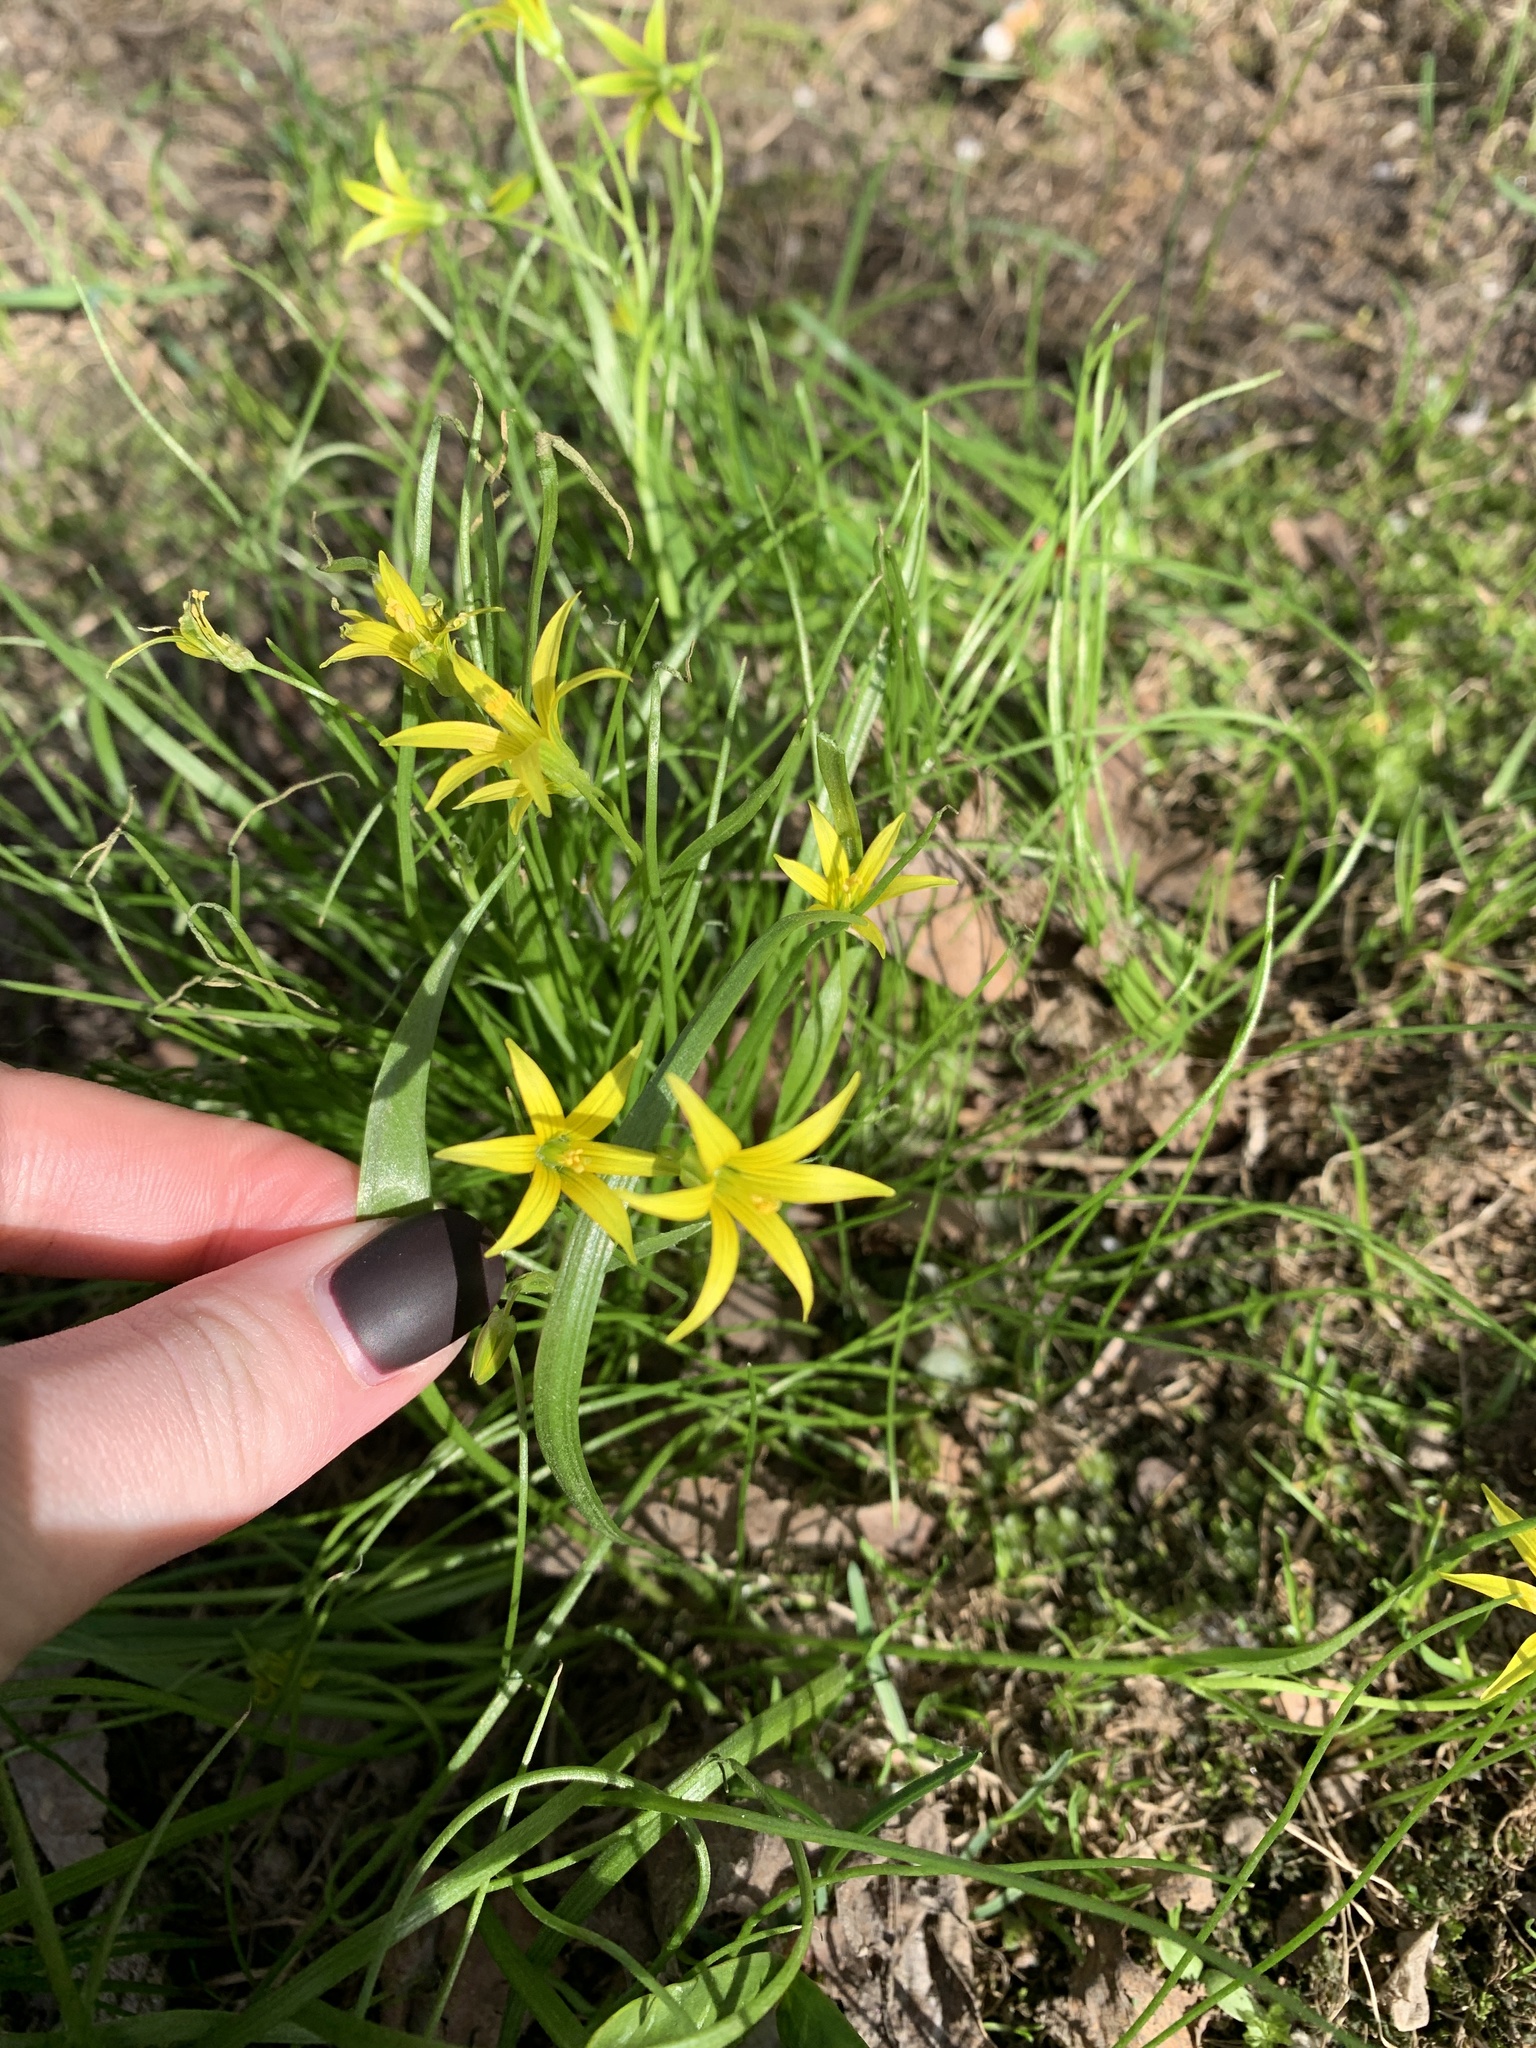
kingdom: Plantae
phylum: Tracheophyta
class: Liliopsida
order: Liliales
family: Liliaceae
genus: Gagea
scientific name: Gagea minima
